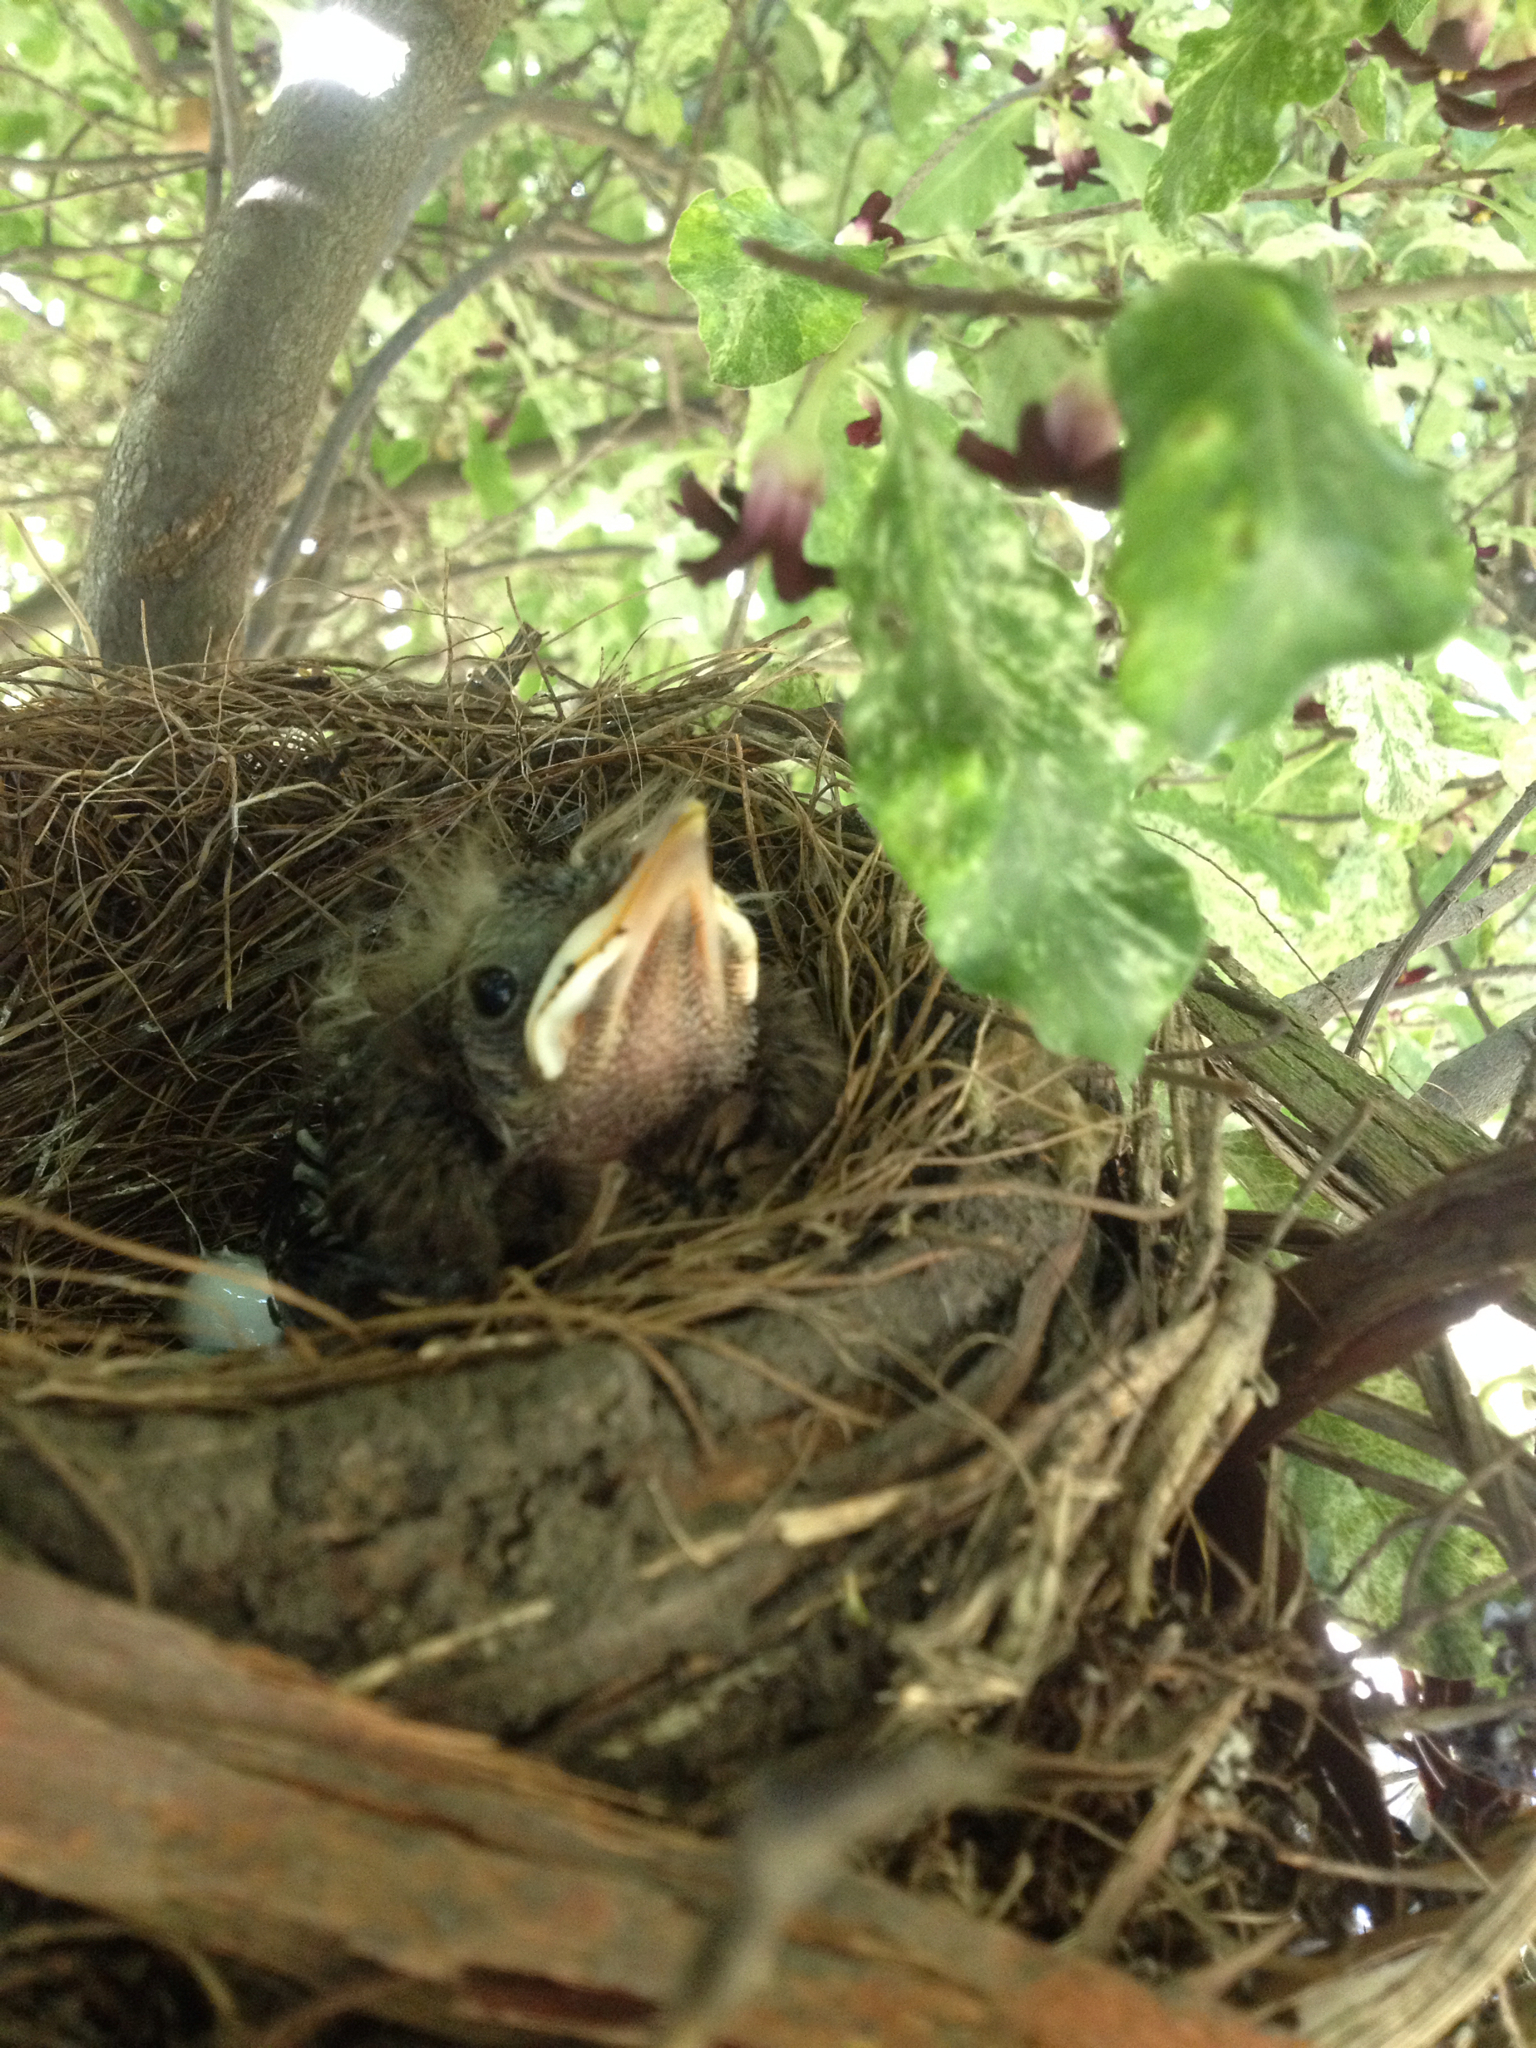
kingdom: Animalia
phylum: Chordata
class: Aves
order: Passeriformes
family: Turdidae
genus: Turdus
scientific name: Turdus merula
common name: Common blackbird
